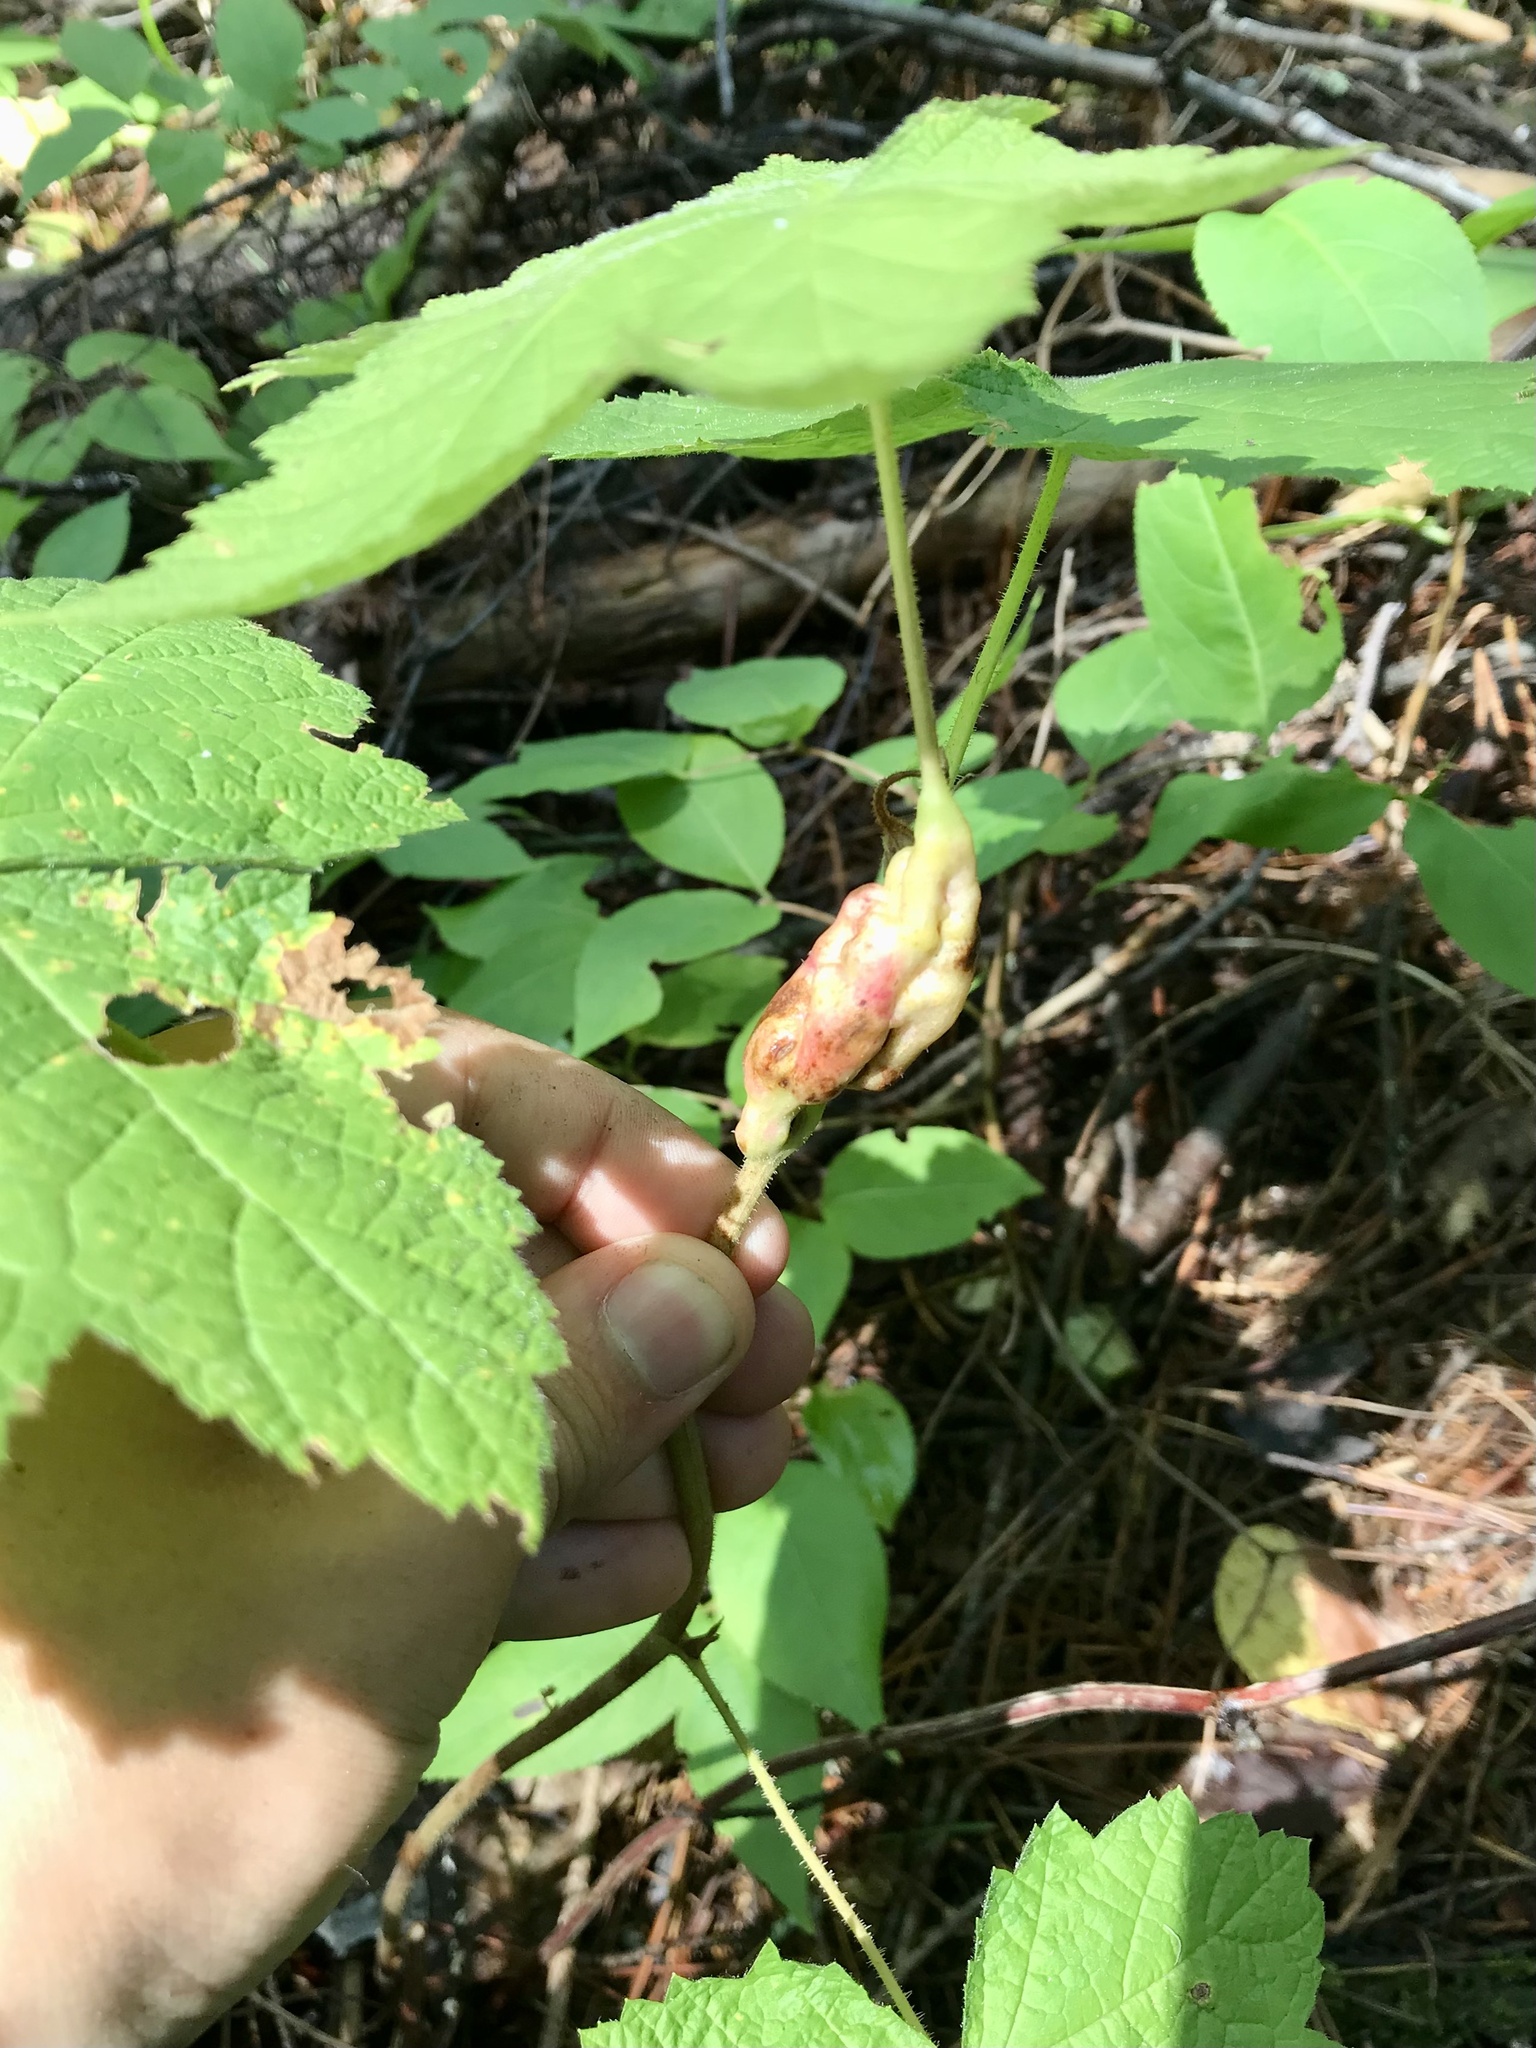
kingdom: Animalia
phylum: Arthropoda
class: Insecta
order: Hymenoptera
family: Cynipidae
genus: Diastrophus
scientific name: Diastrophus
